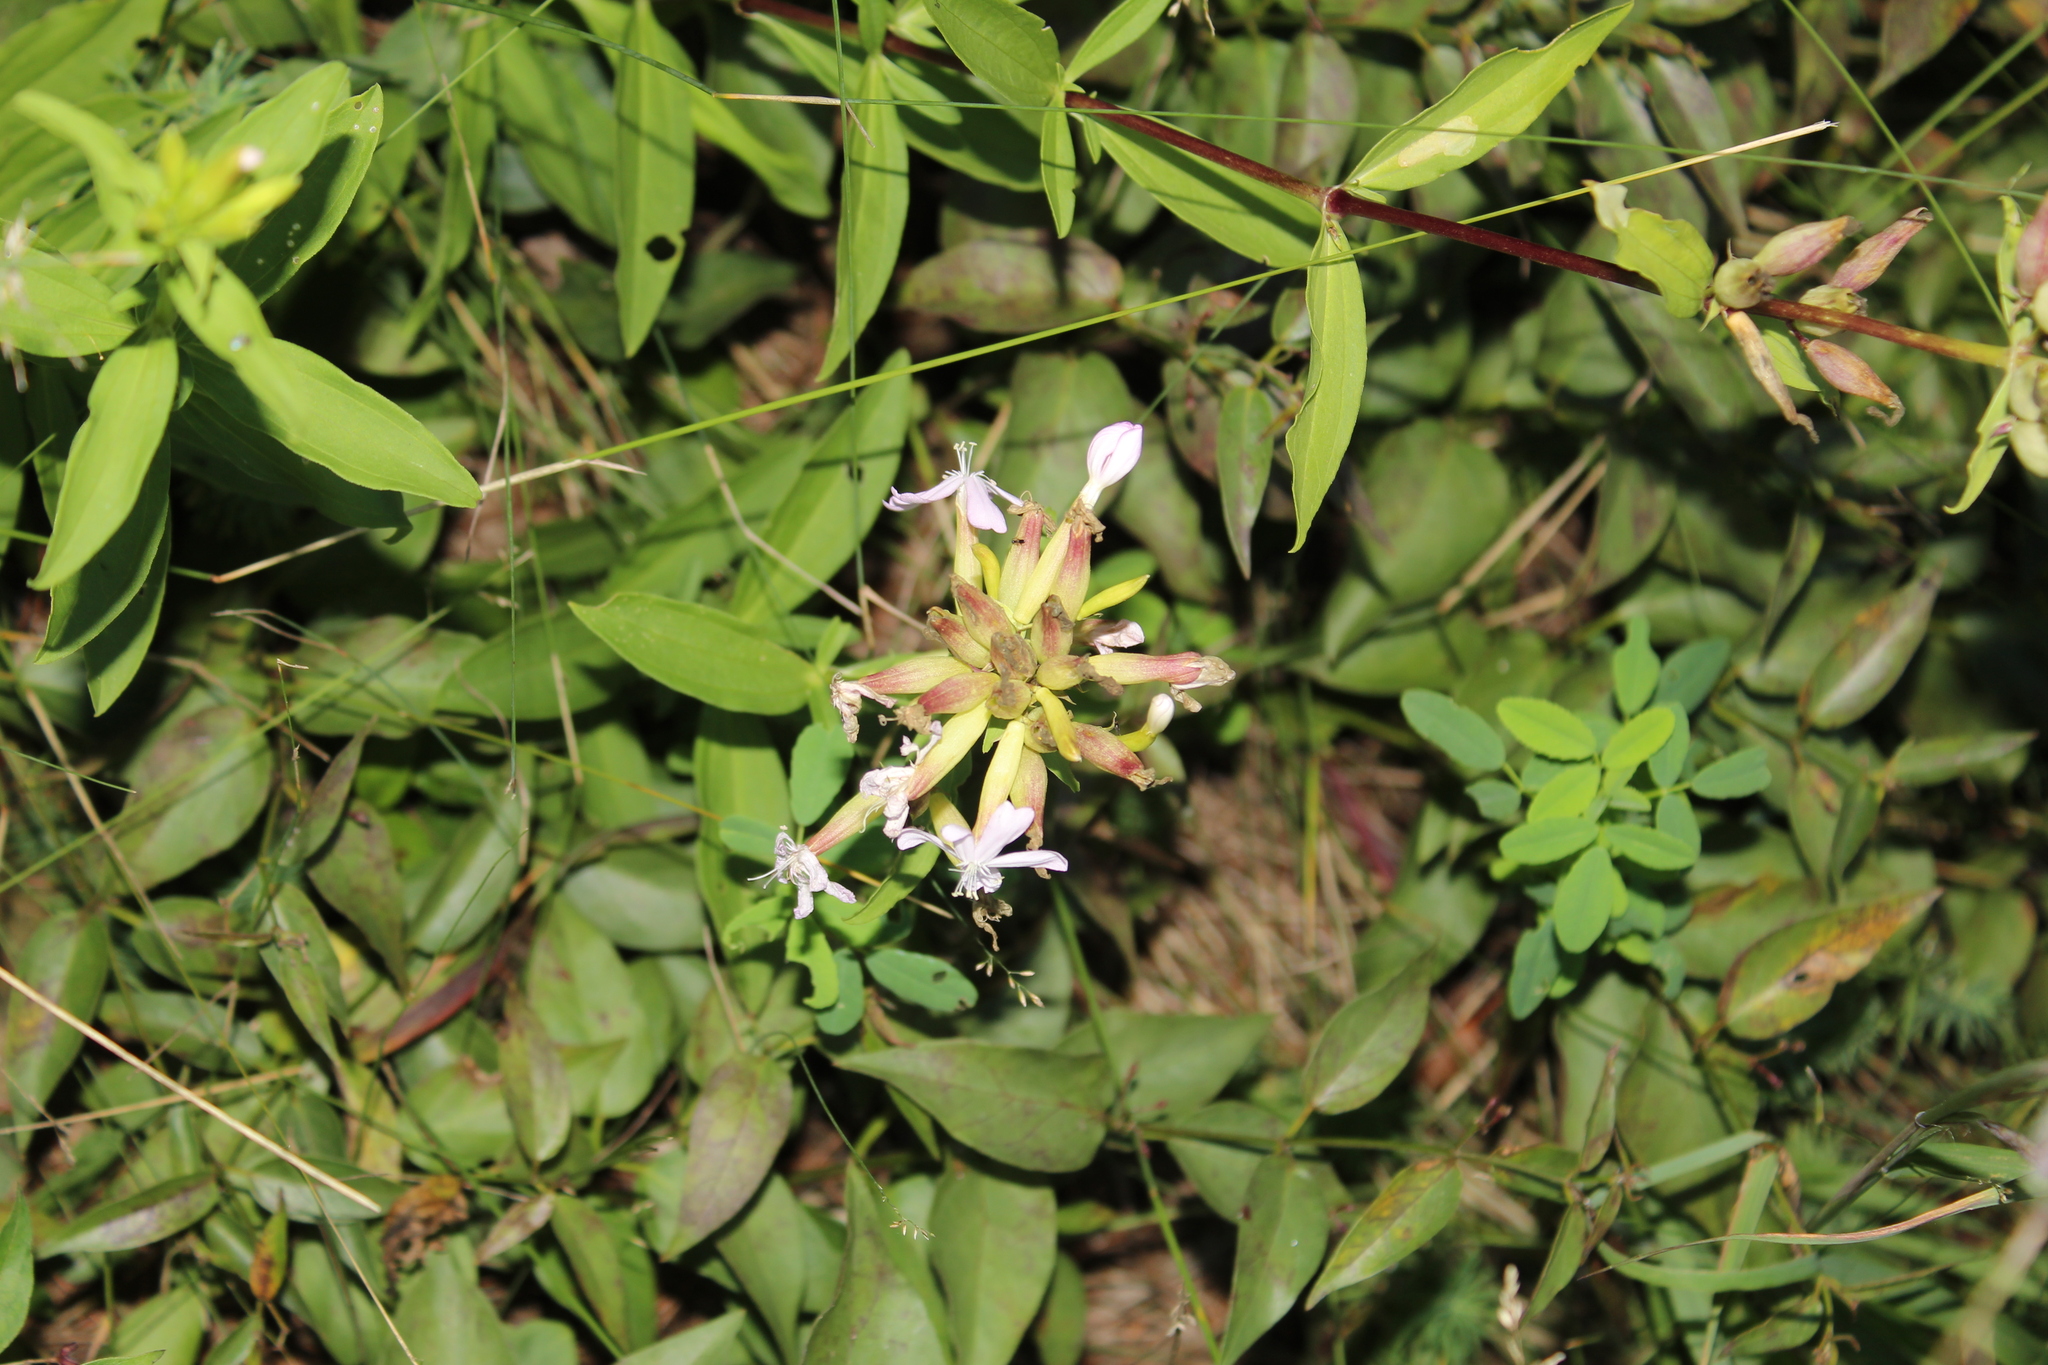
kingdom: Plantae
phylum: Tracheophyta
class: Magnoliopsida
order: Caryophyllales
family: Caryophyllaceae
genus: Saponaria
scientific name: Saponaria officinalis
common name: Soapwort
